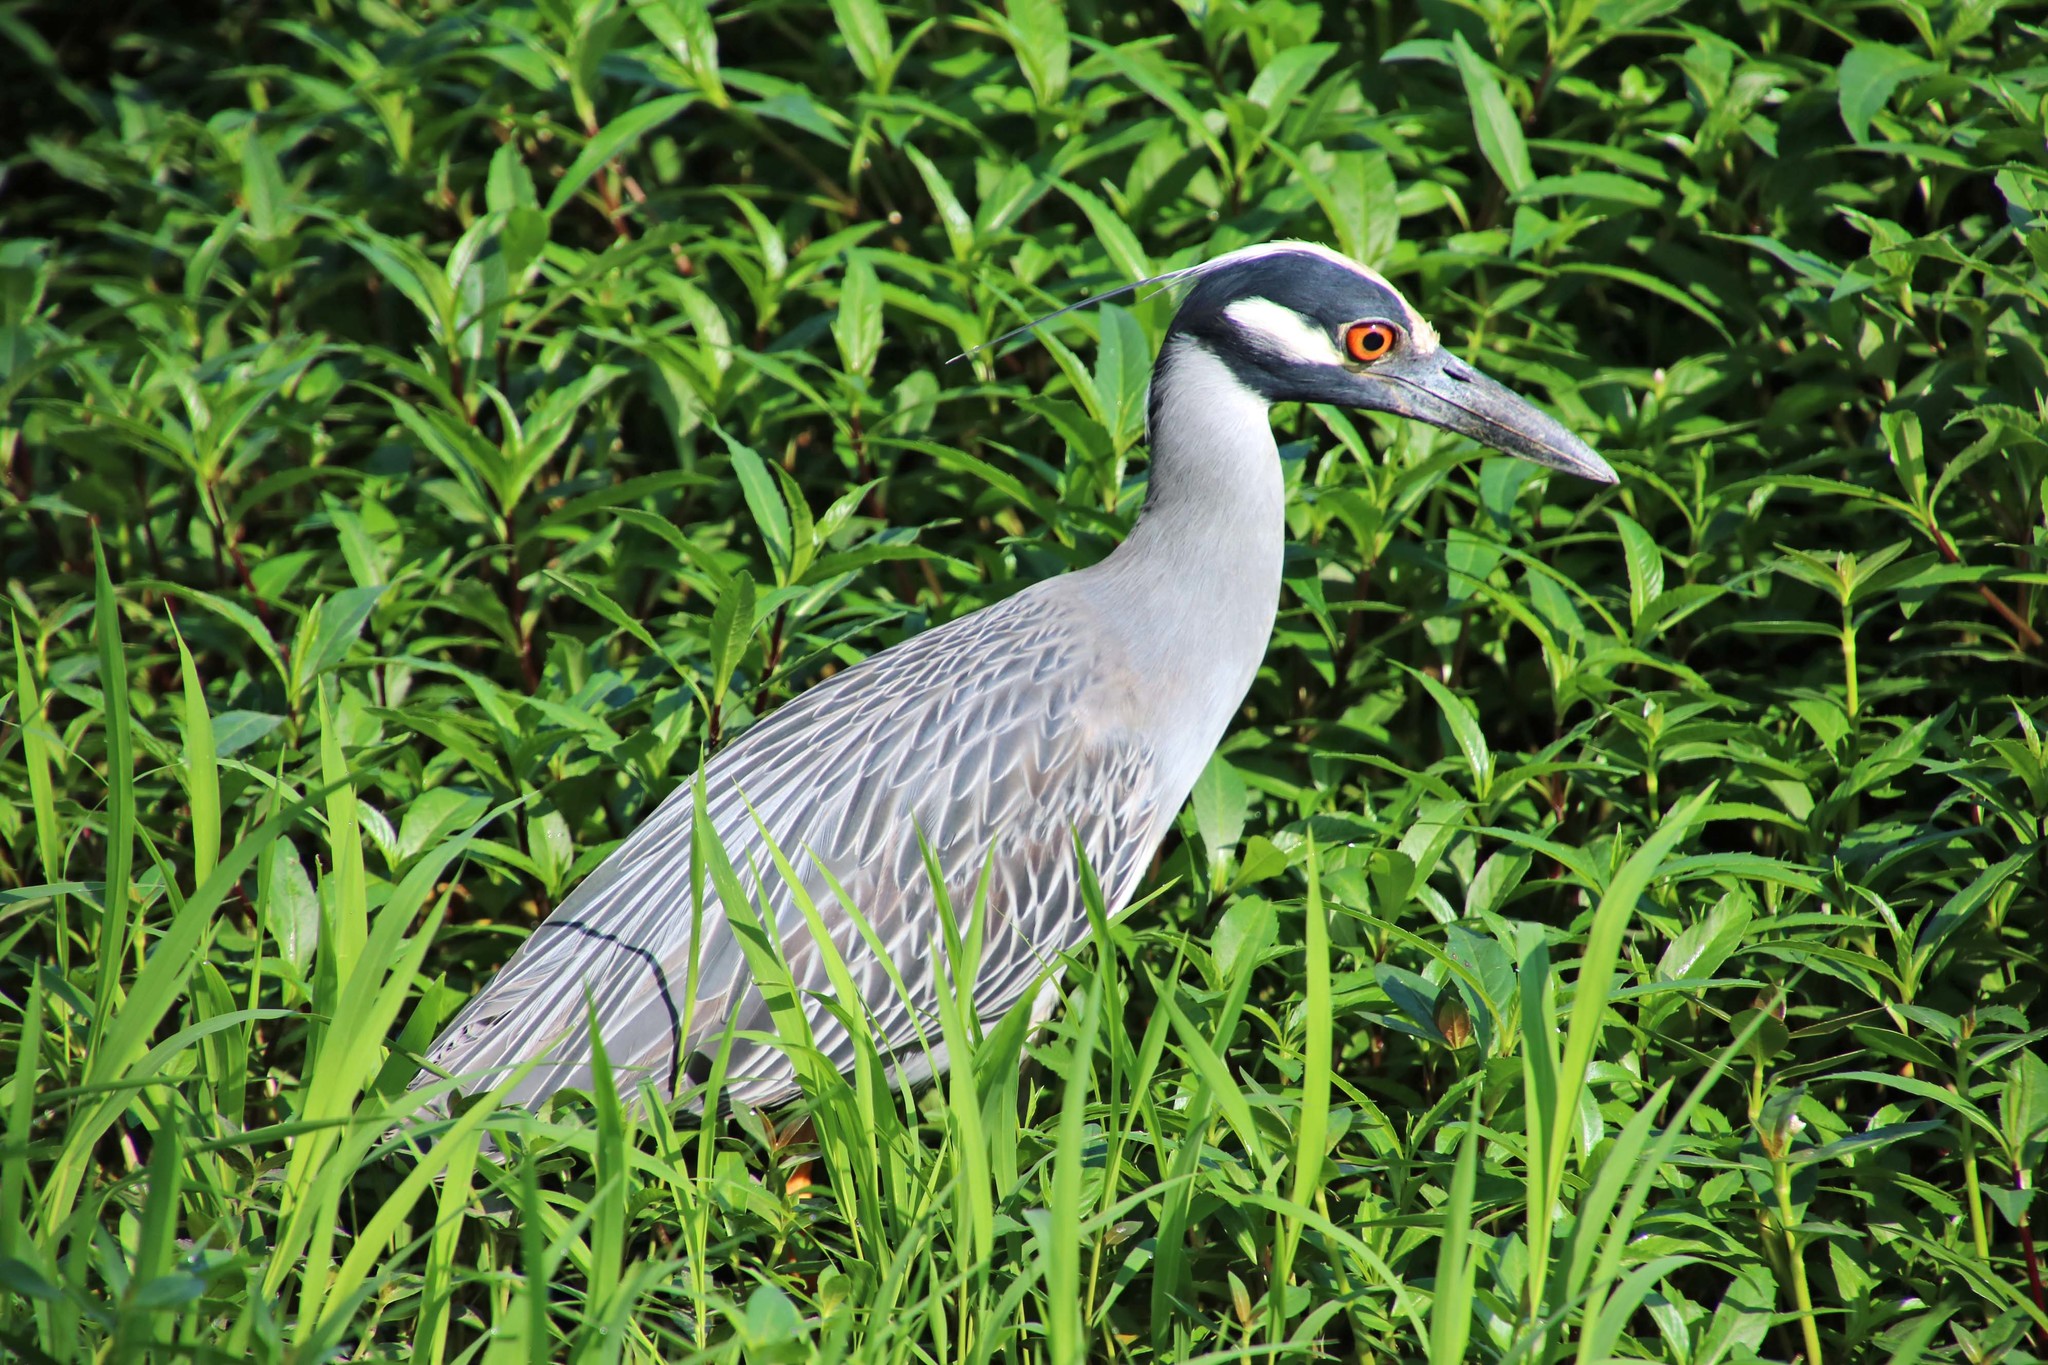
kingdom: Animalia
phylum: Chordata
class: Aves
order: Pelecaniformes
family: Ardeidae
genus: Nyctanassa
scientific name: Nyctanassa violacea
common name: Yellow-crowned night heron
